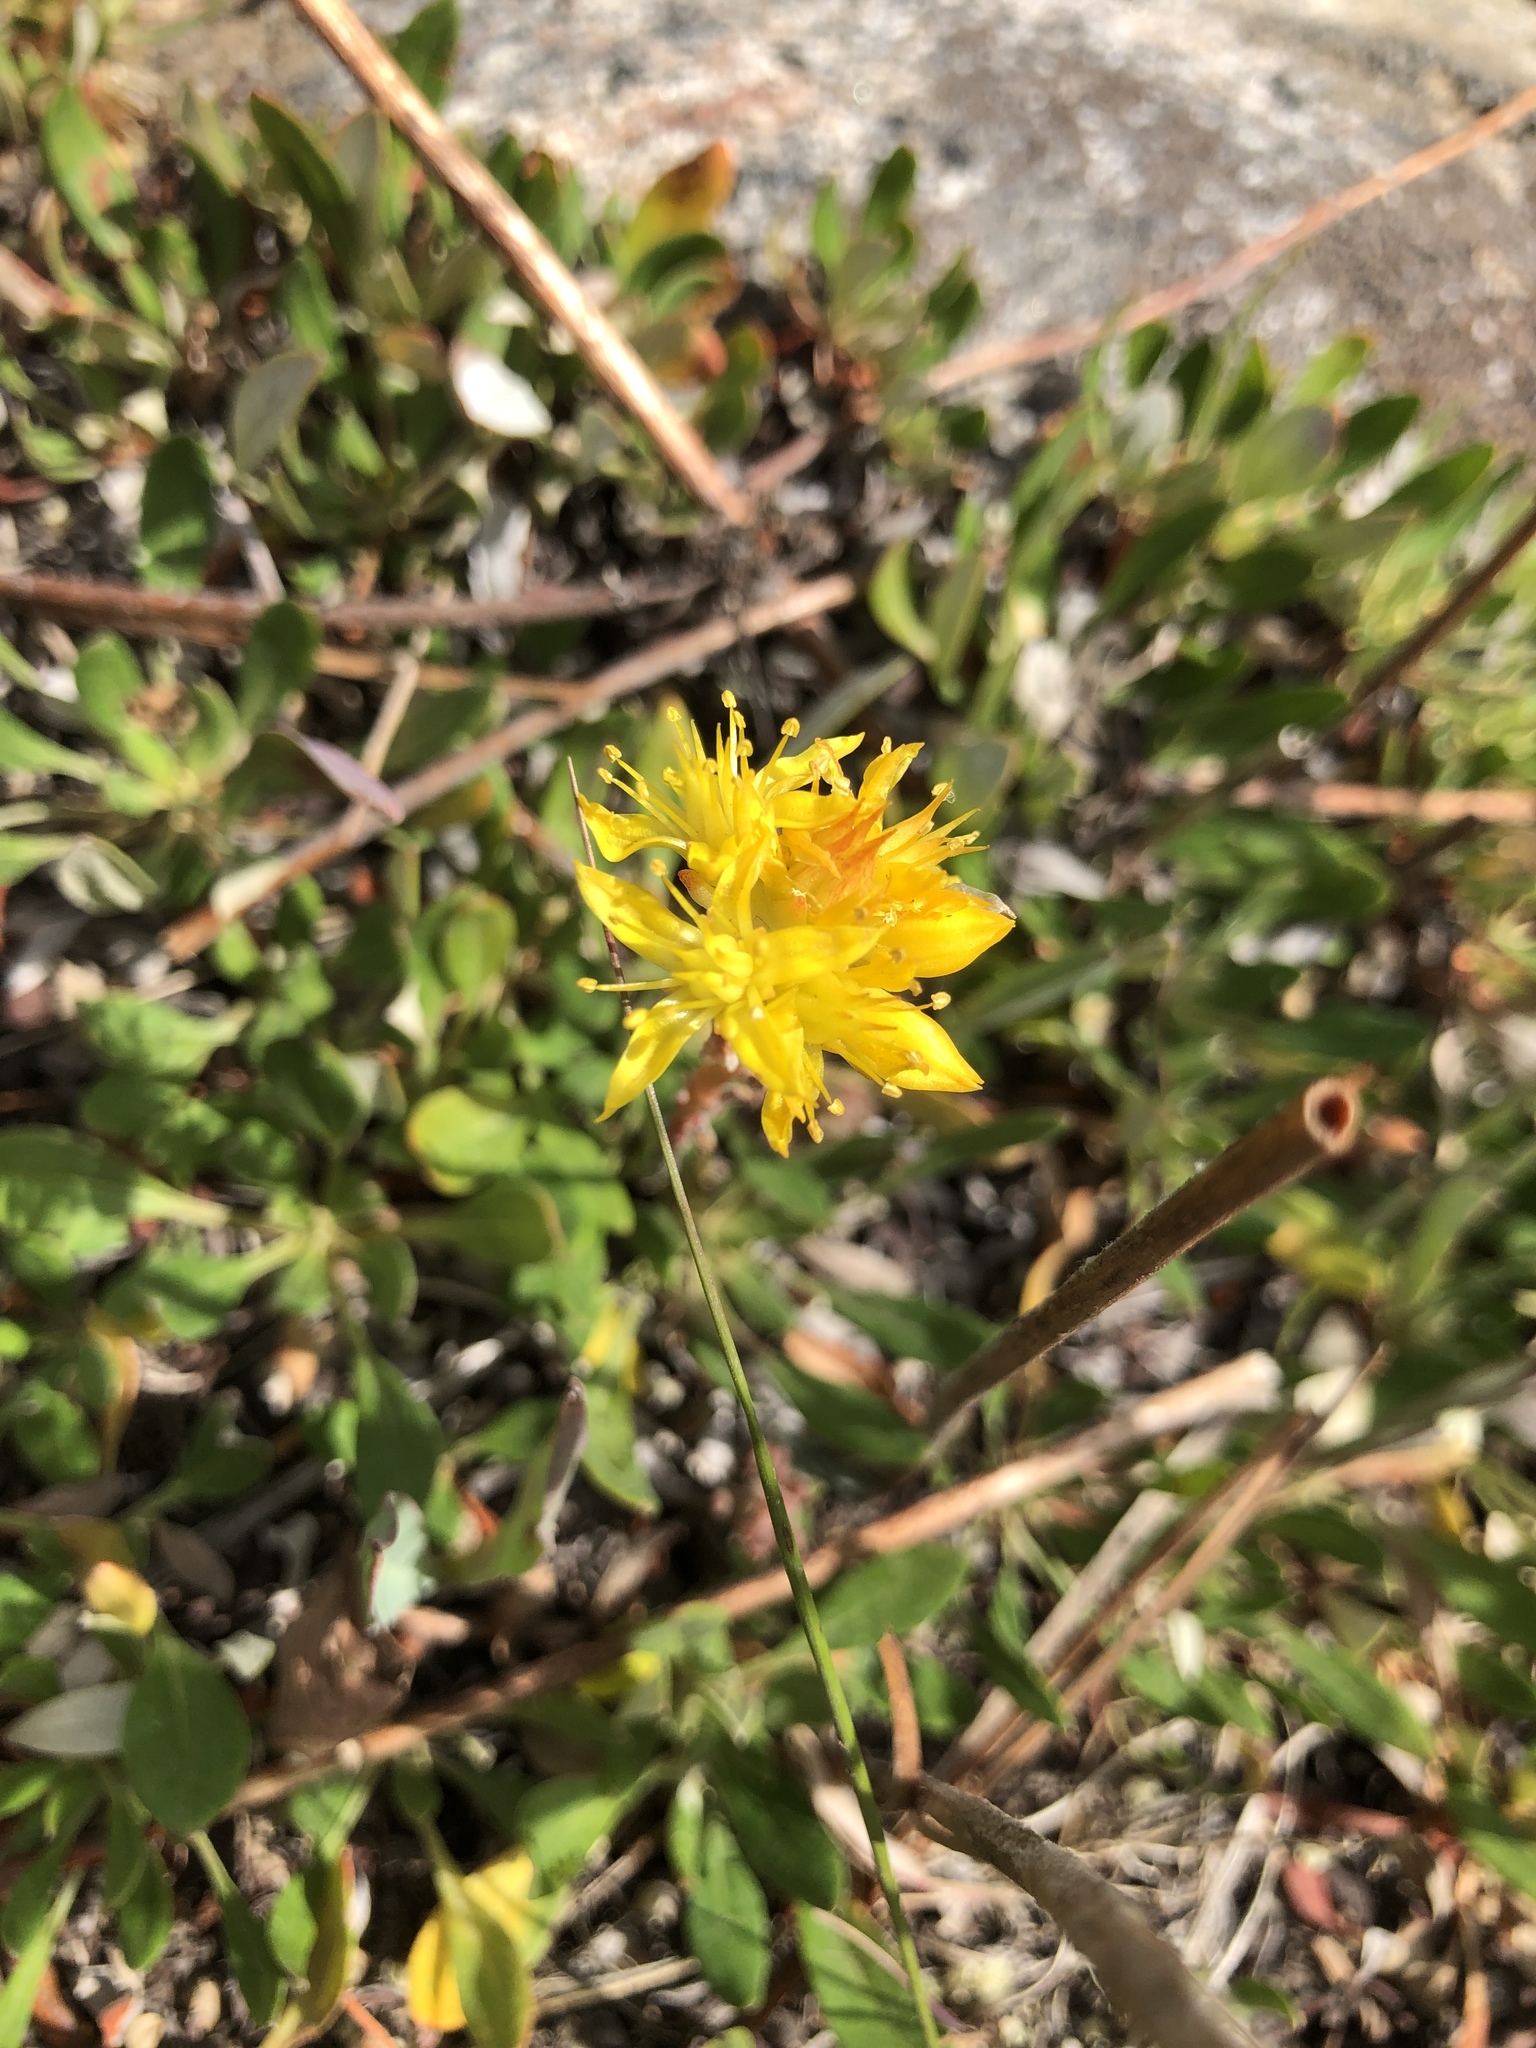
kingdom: Plantae
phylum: Tracheophyta
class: Magnoliopsida
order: Saxifragales
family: Crassulaceae
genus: Sedum
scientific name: Sedum lanceolatum
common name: Common stonecrop
